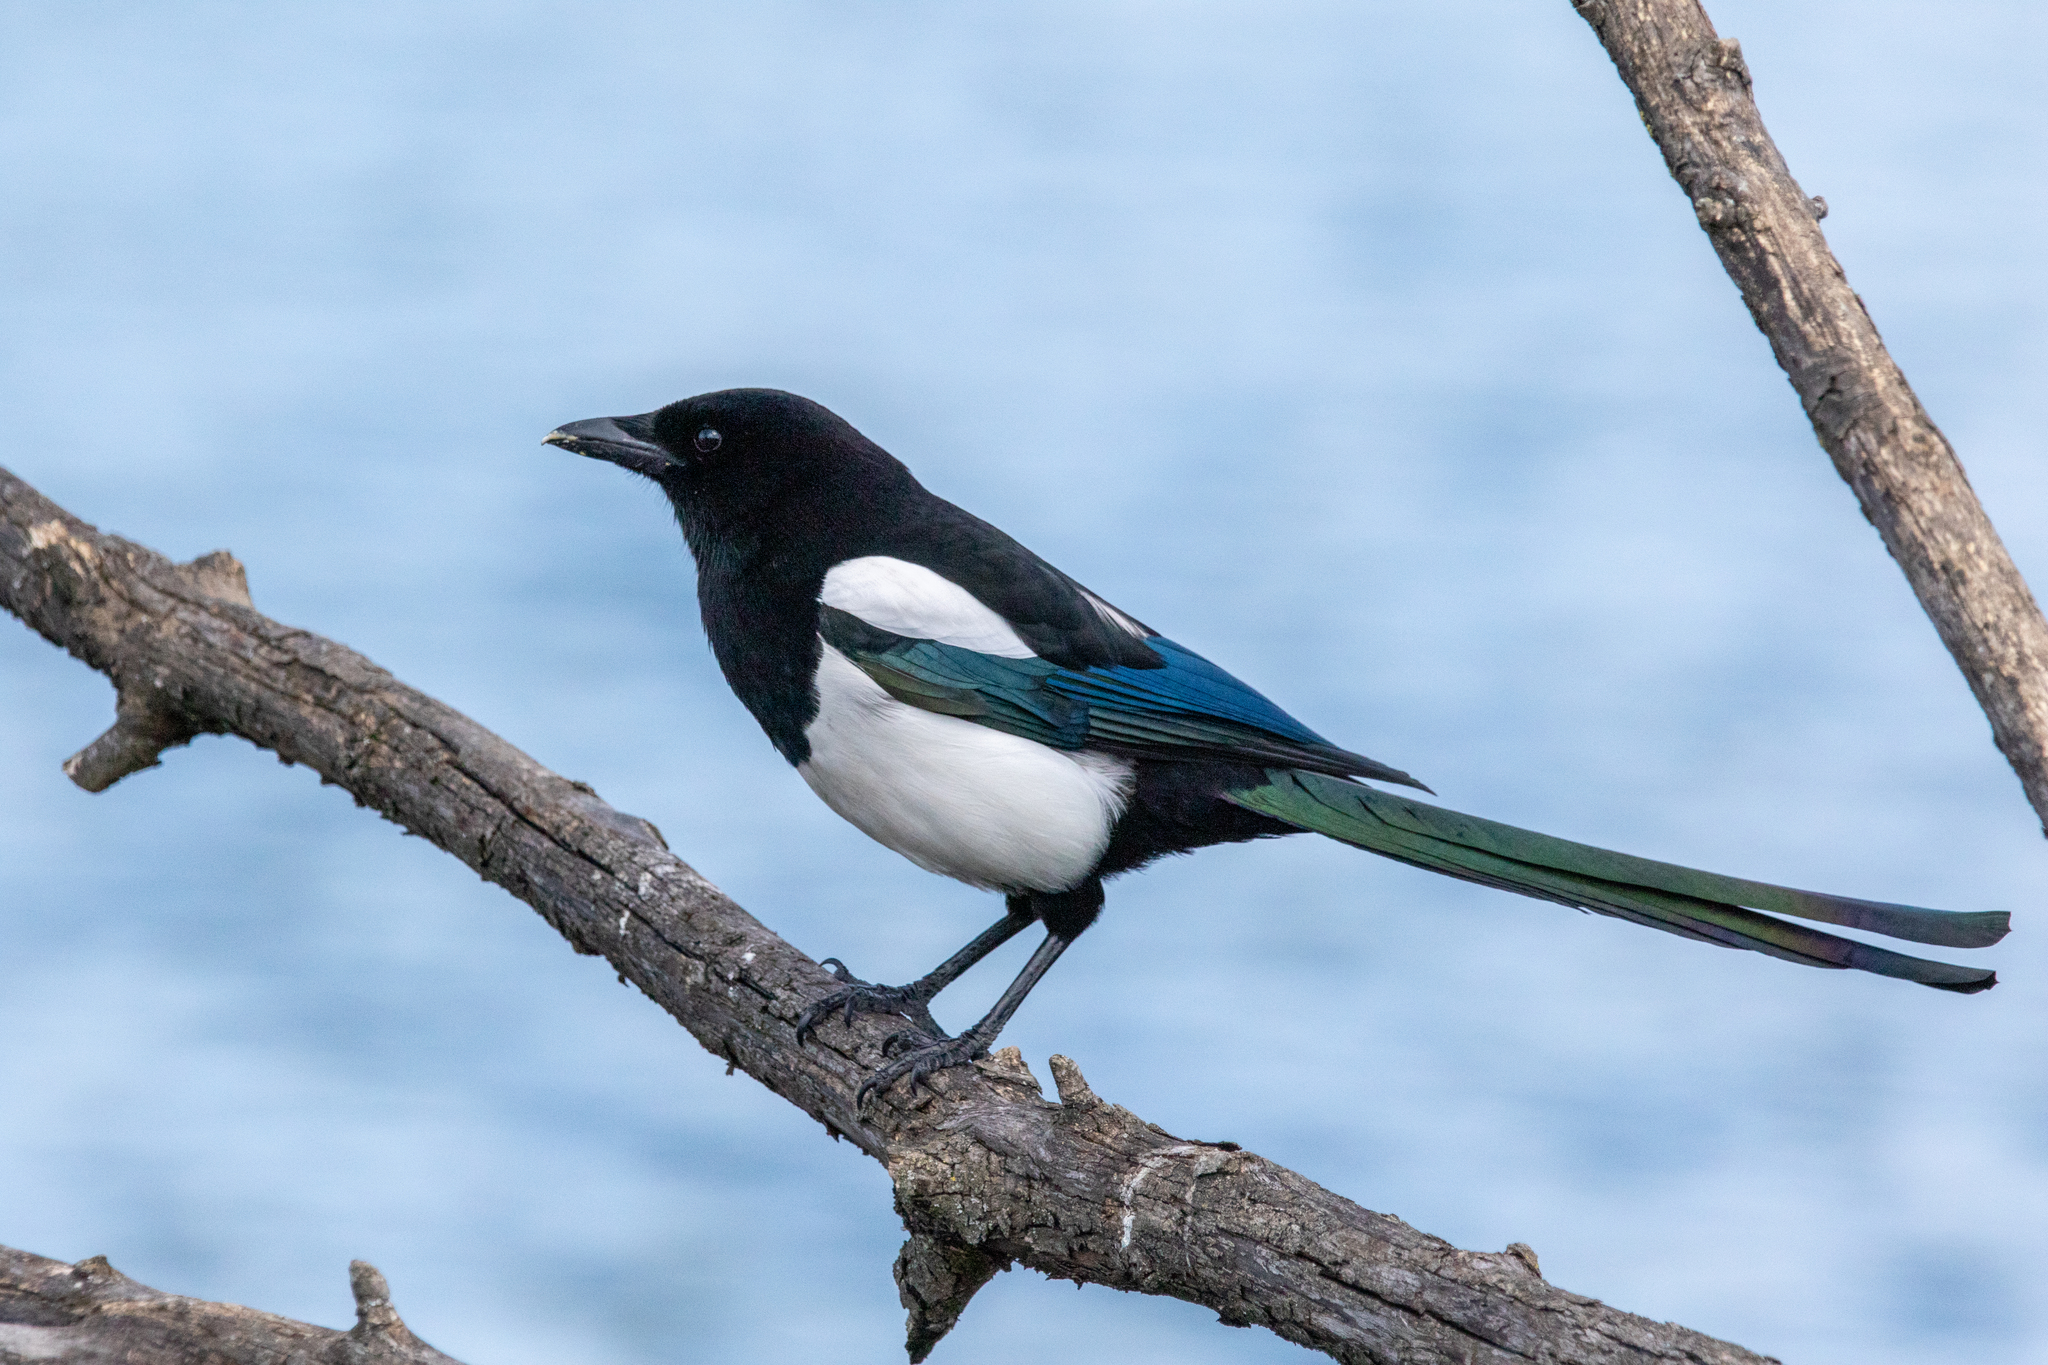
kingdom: Animalia
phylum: Chordata
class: Aves
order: Passeriformes
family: Corvidae
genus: Pica
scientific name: Pica pica
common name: Eurasian magpie
